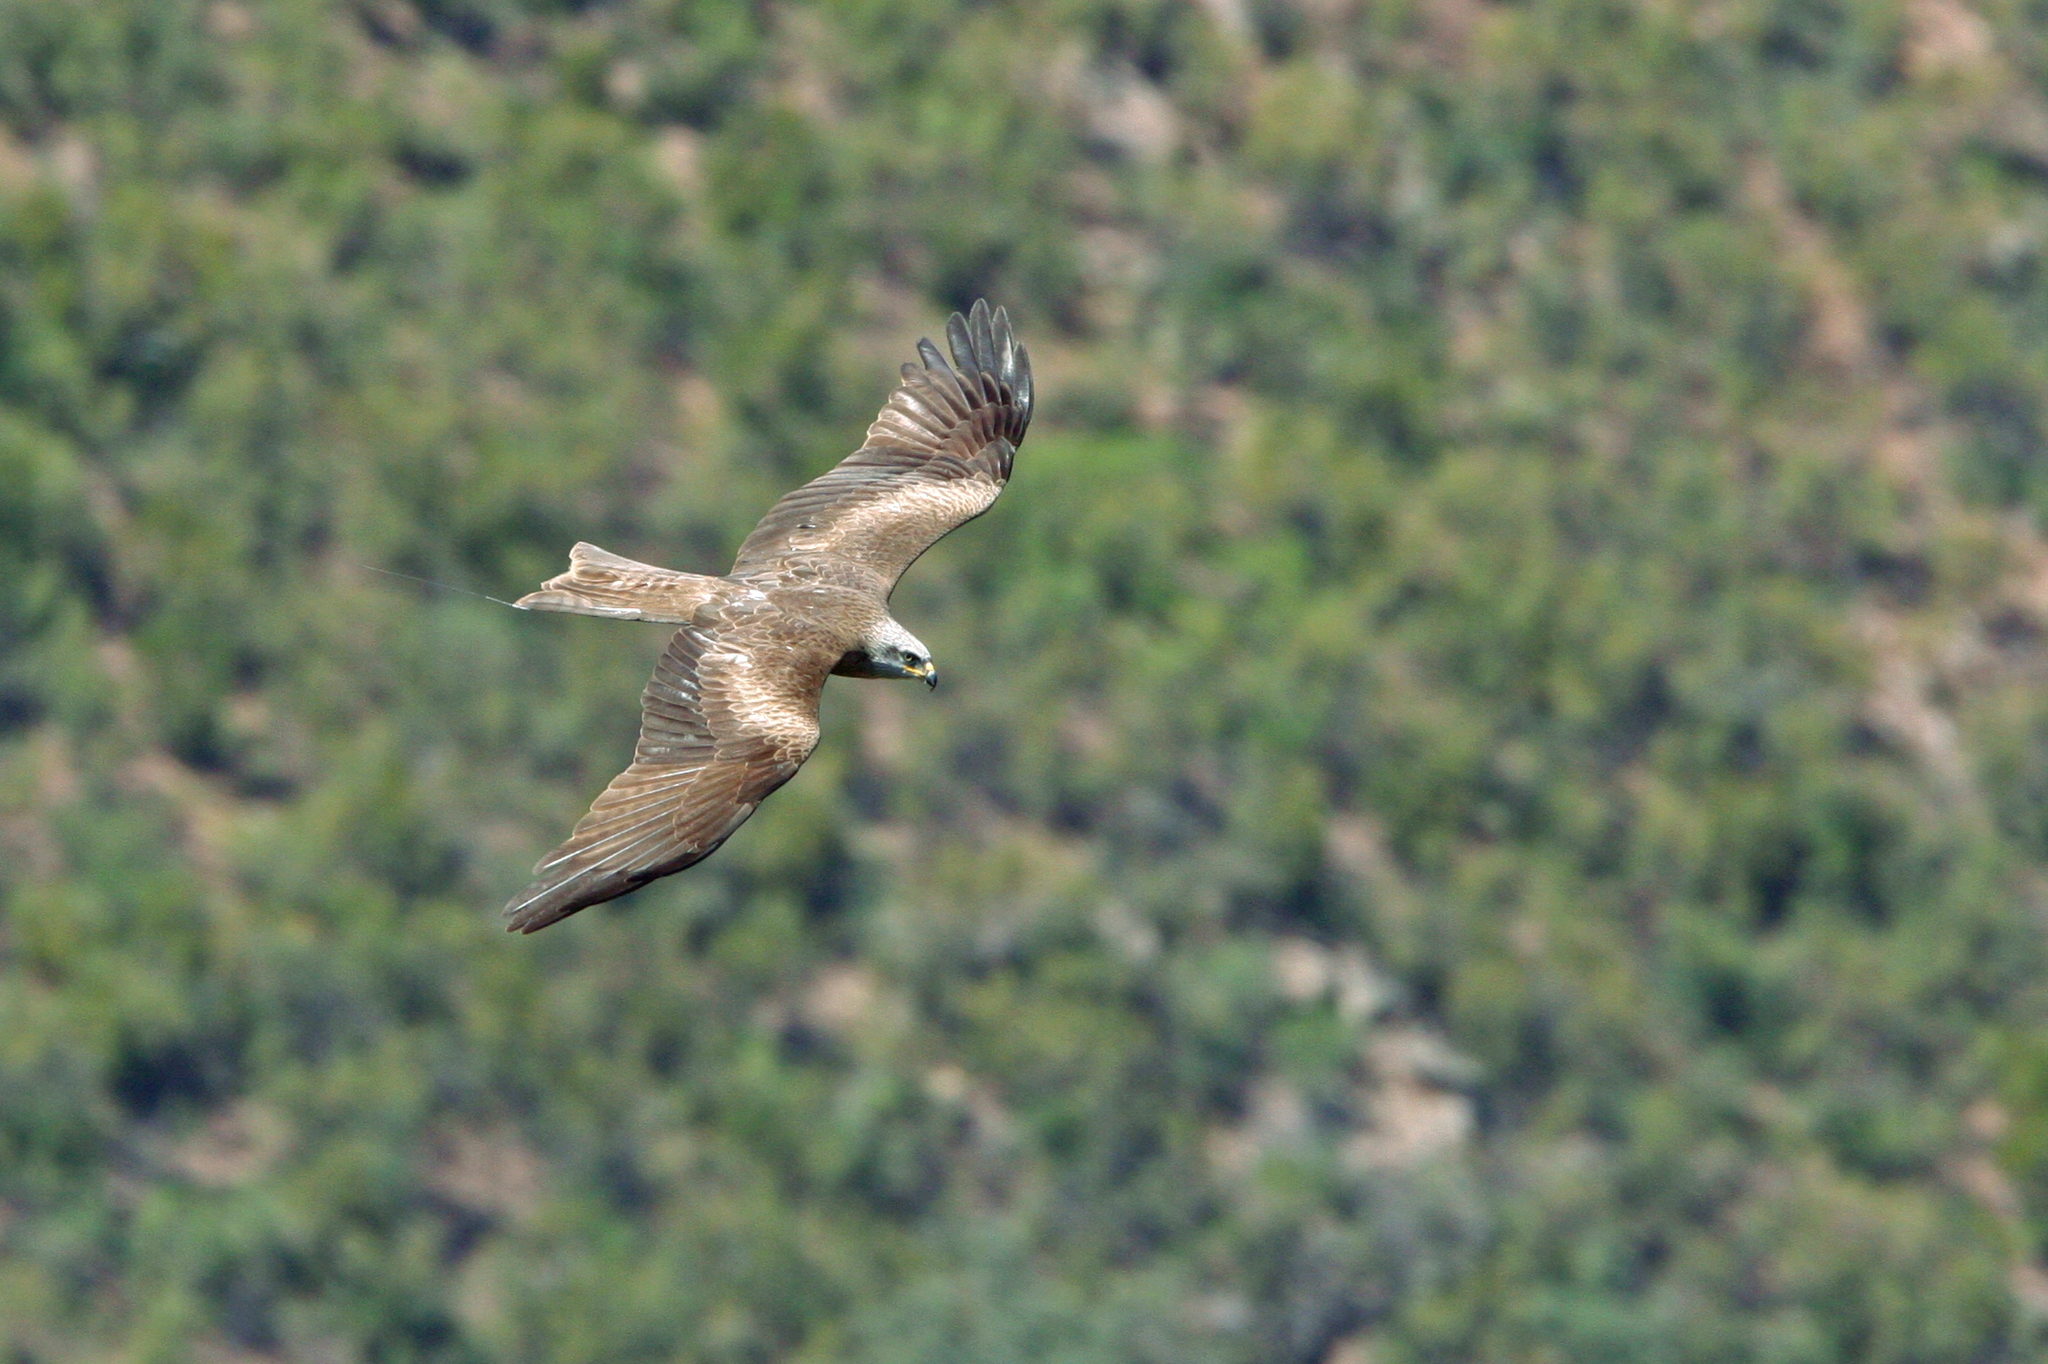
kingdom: Animalia
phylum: Chordata
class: Aves
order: Accipitriformes
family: Accipitridae
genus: Milvus
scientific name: Milvus migrans
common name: Black kite
